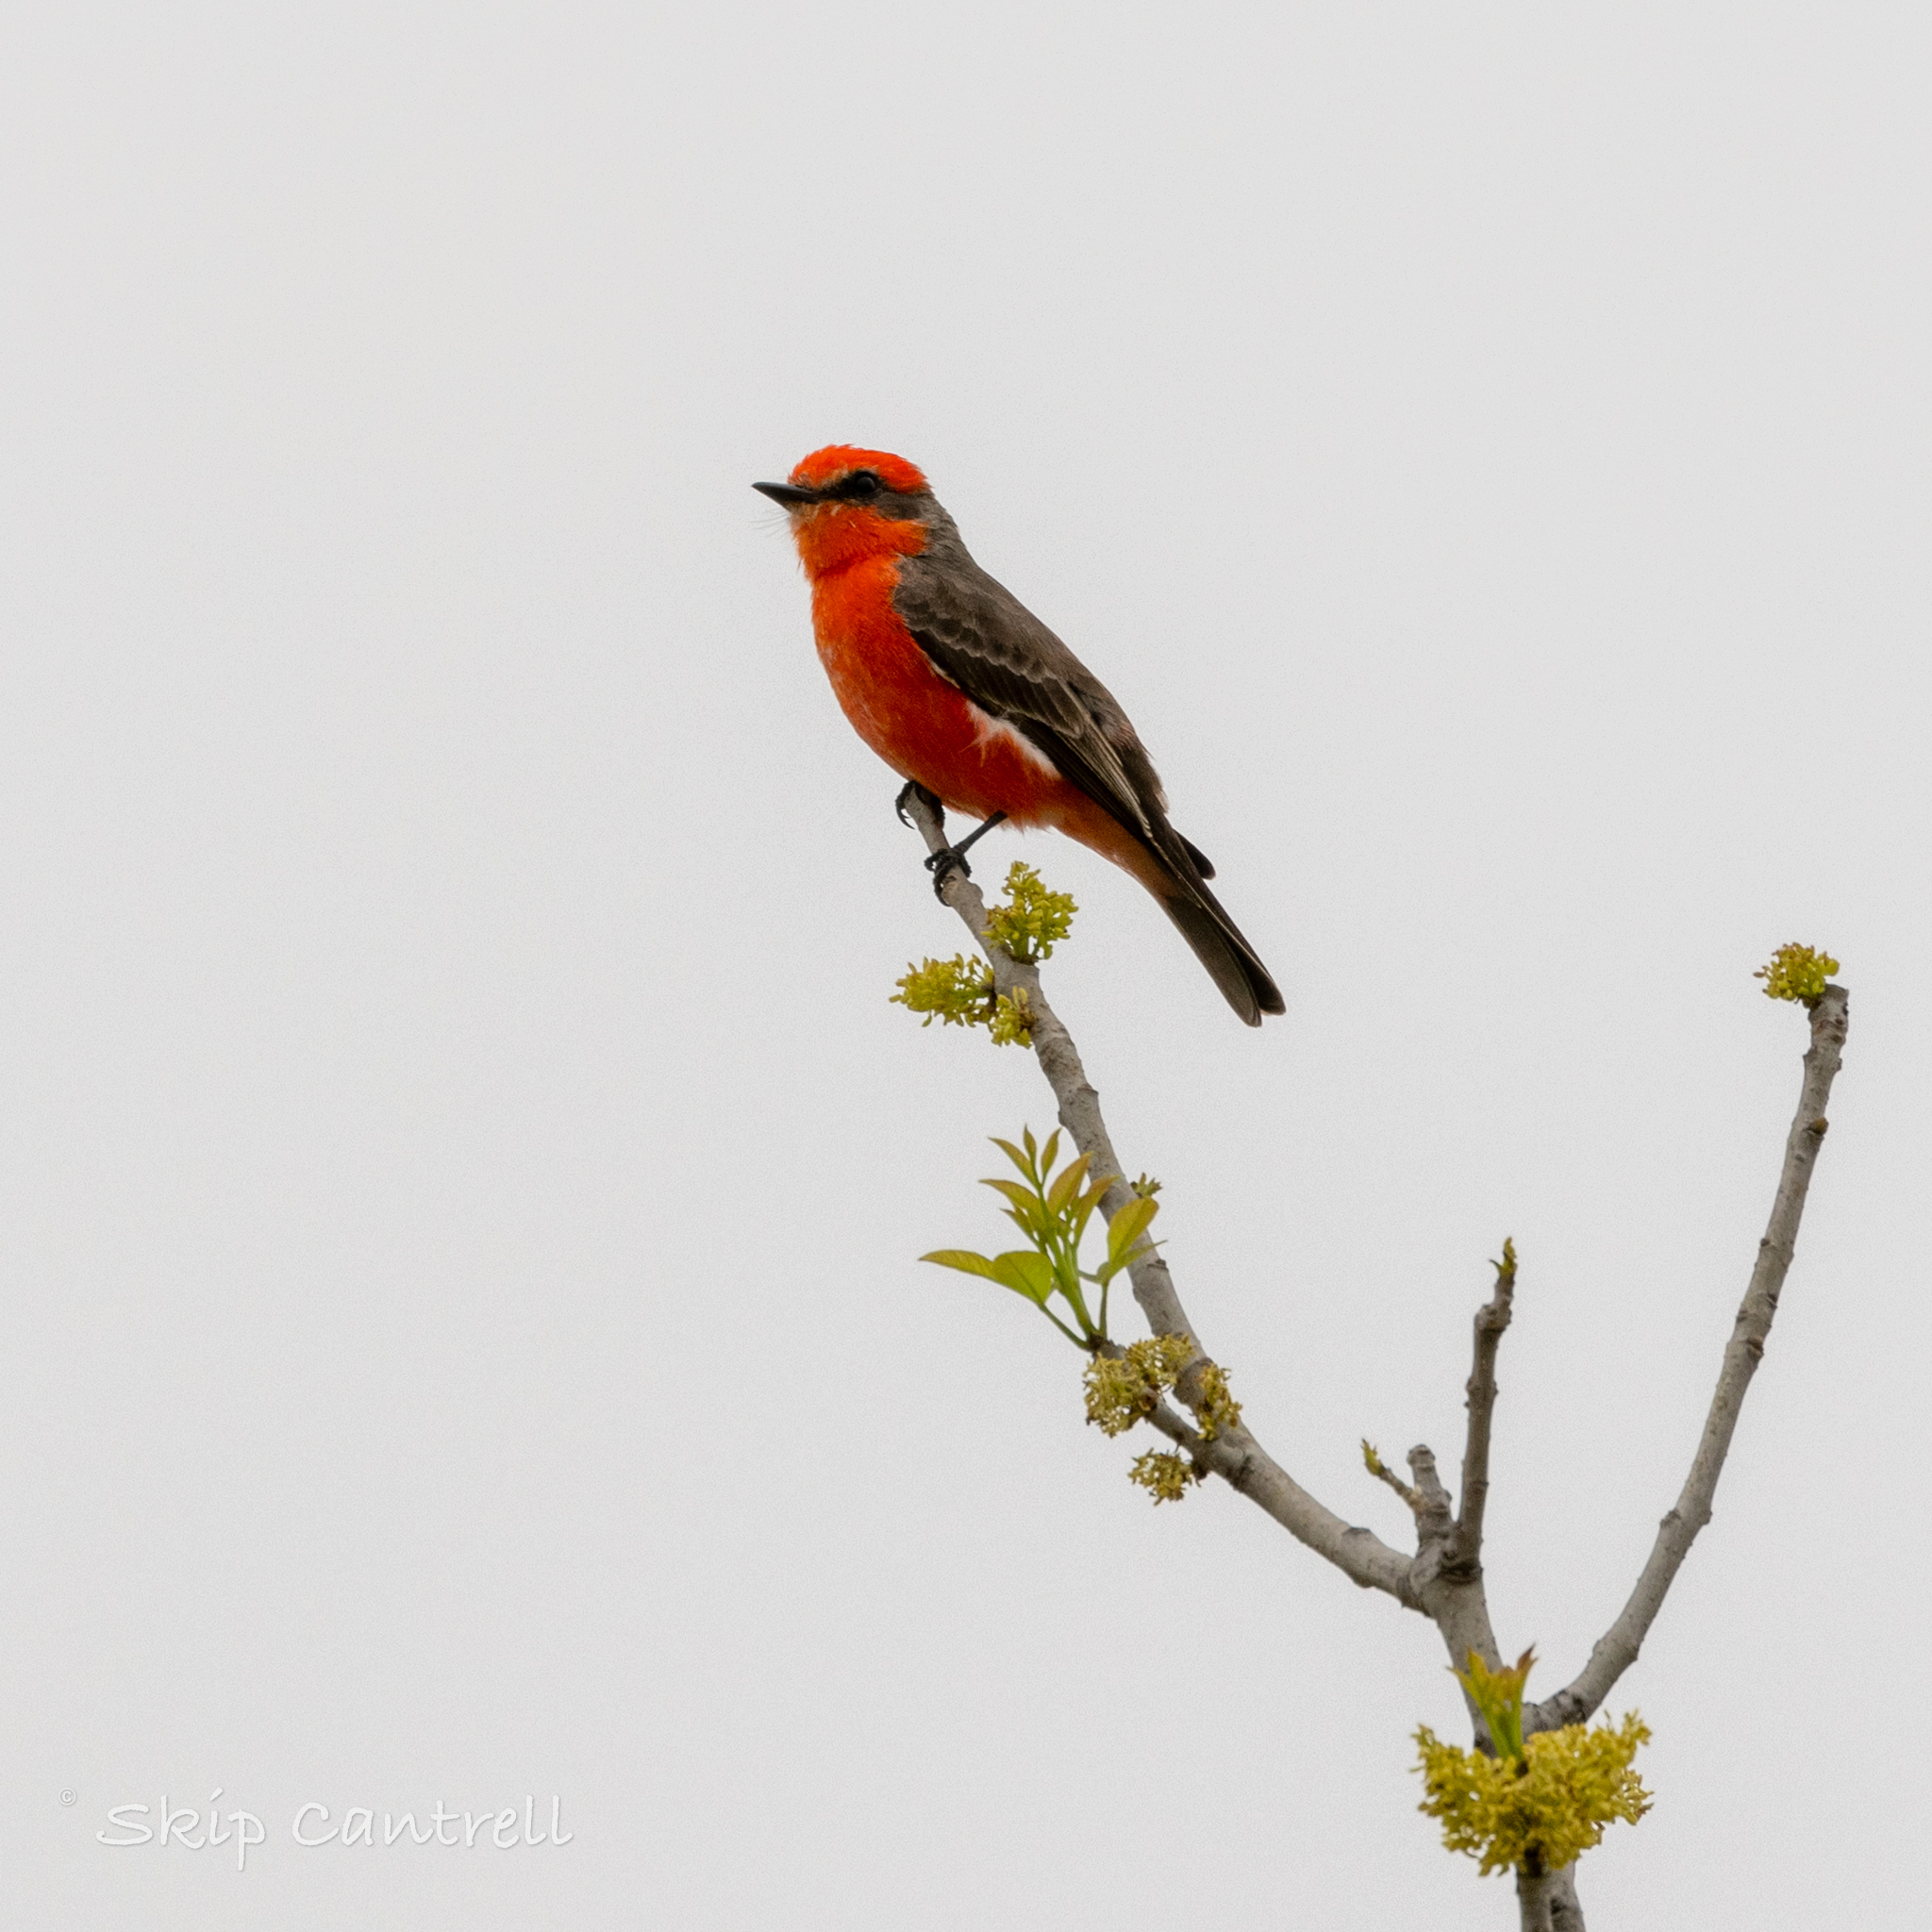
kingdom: Animalia
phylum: Chordata
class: Aves
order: Passeriformes
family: Tyrannidae
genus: Pyrocephalus
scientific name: Pyrocephalus rubinus
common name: Vermilion flycatcher
